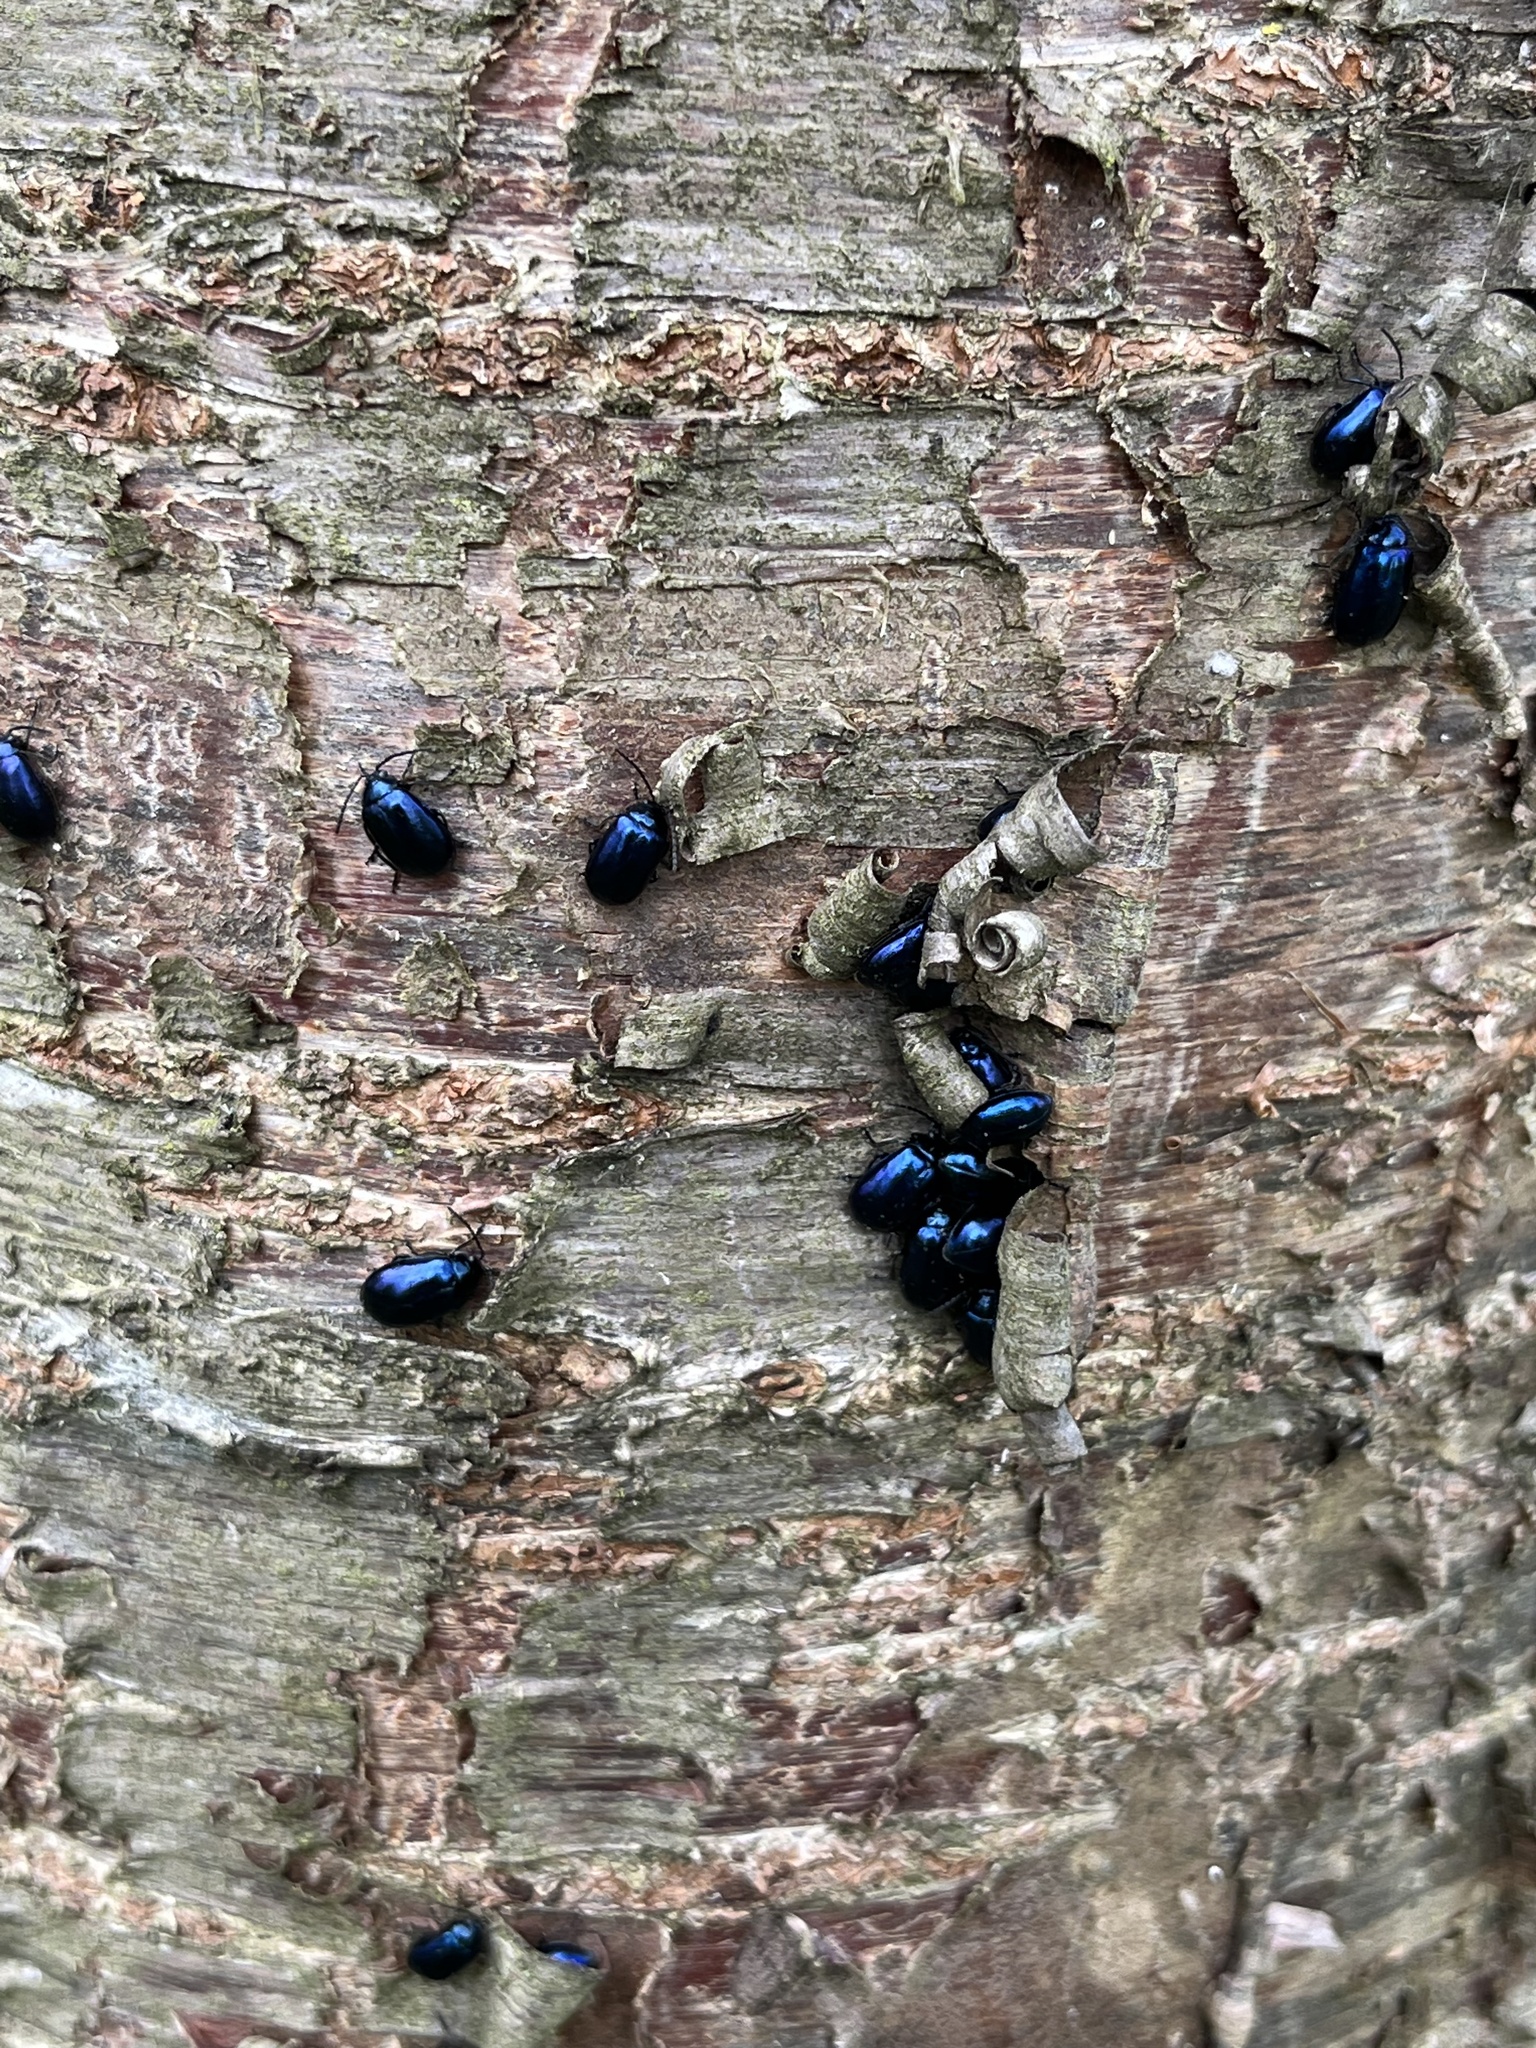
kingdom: Animalia
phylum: Arthropoda
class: Insecta
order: Coleoptera
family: Chrysomelidae
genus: Agelastica
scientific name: Agelastica alni
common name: Alder leaf beetle
